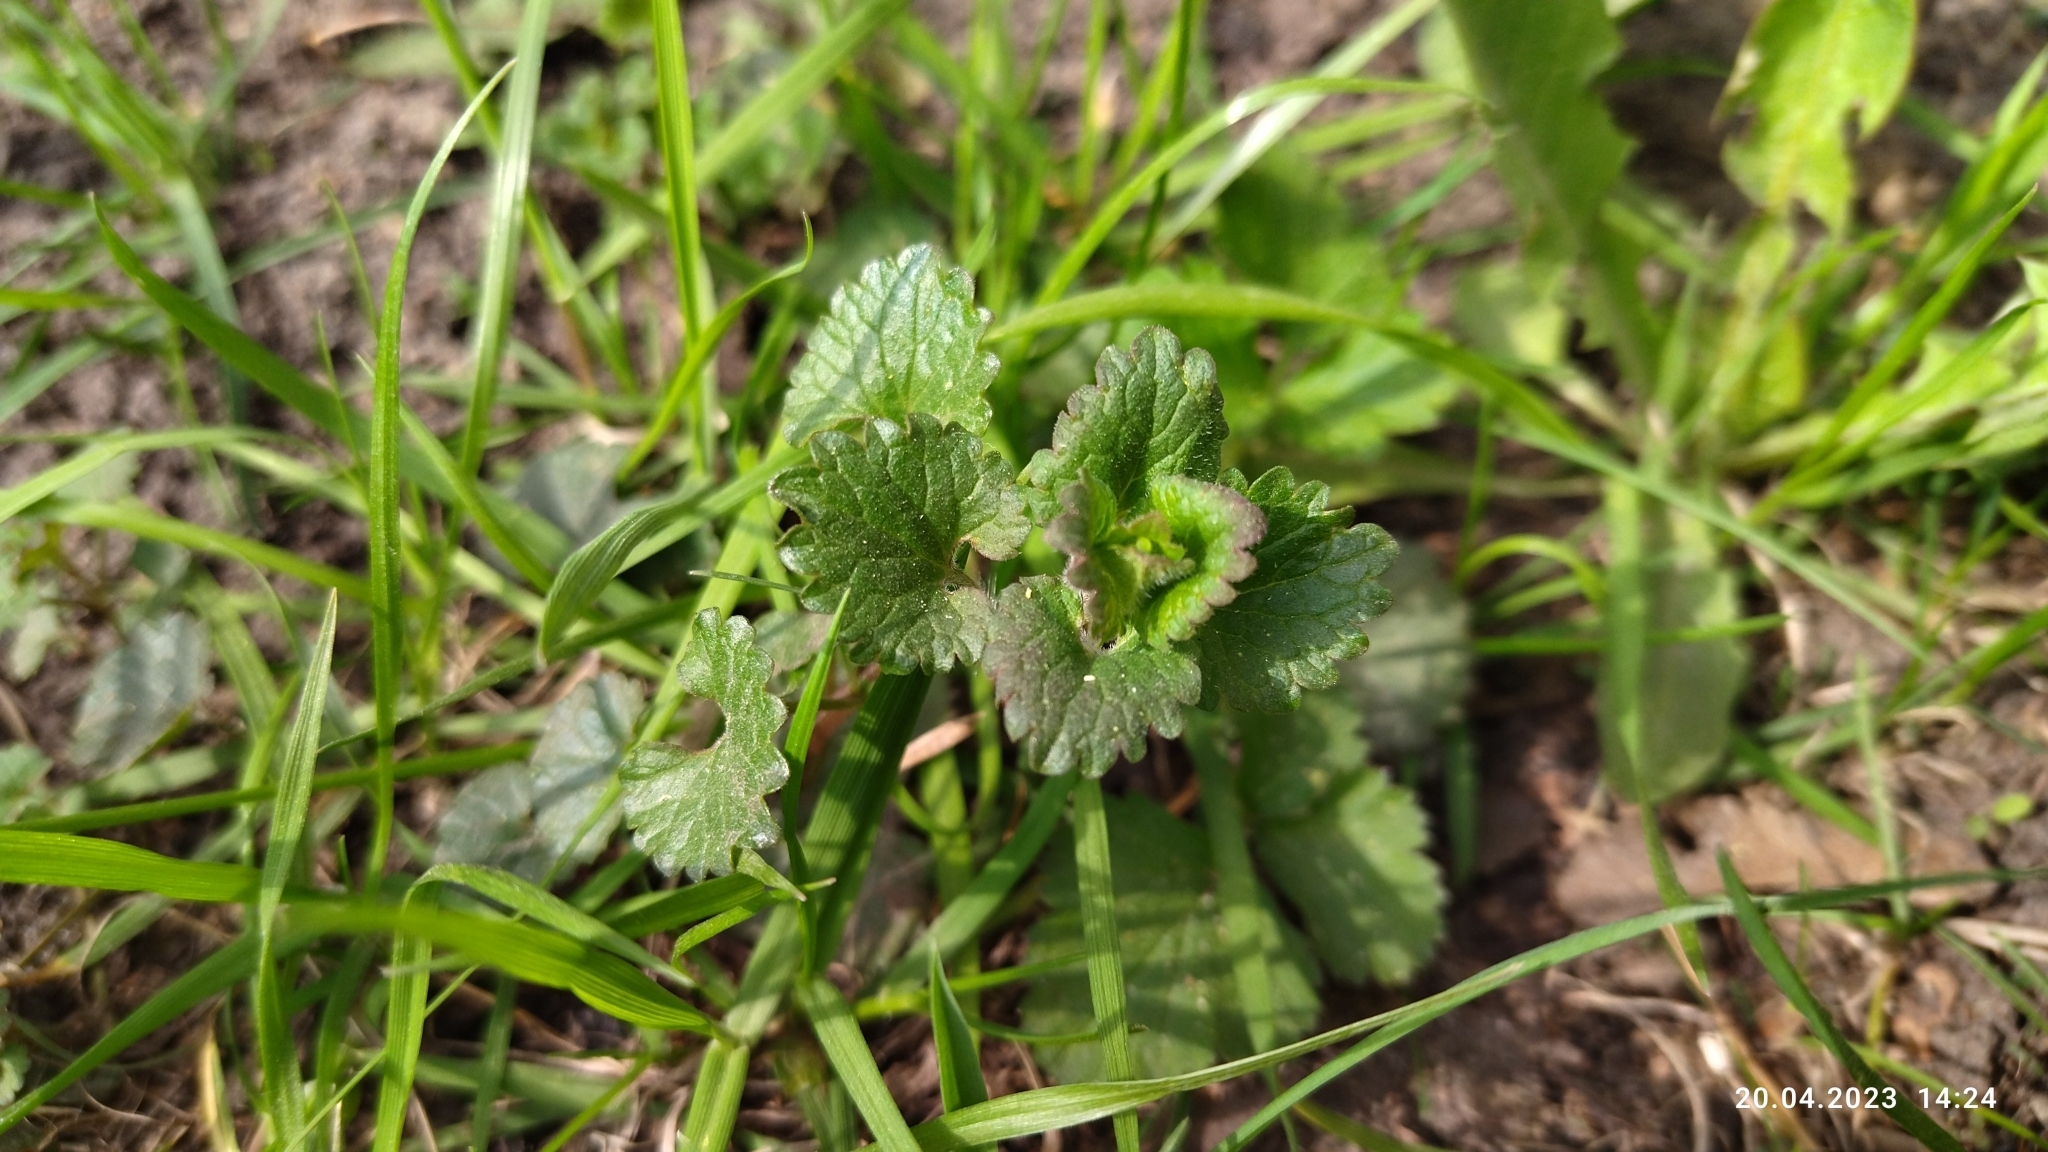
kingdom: Plantae
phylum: Tracheophyta
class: Magnoliopsida
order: Lamiales
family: Lamiaceae
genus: Glechoma
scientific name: Glechoma hederacea
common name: Ground ivy
